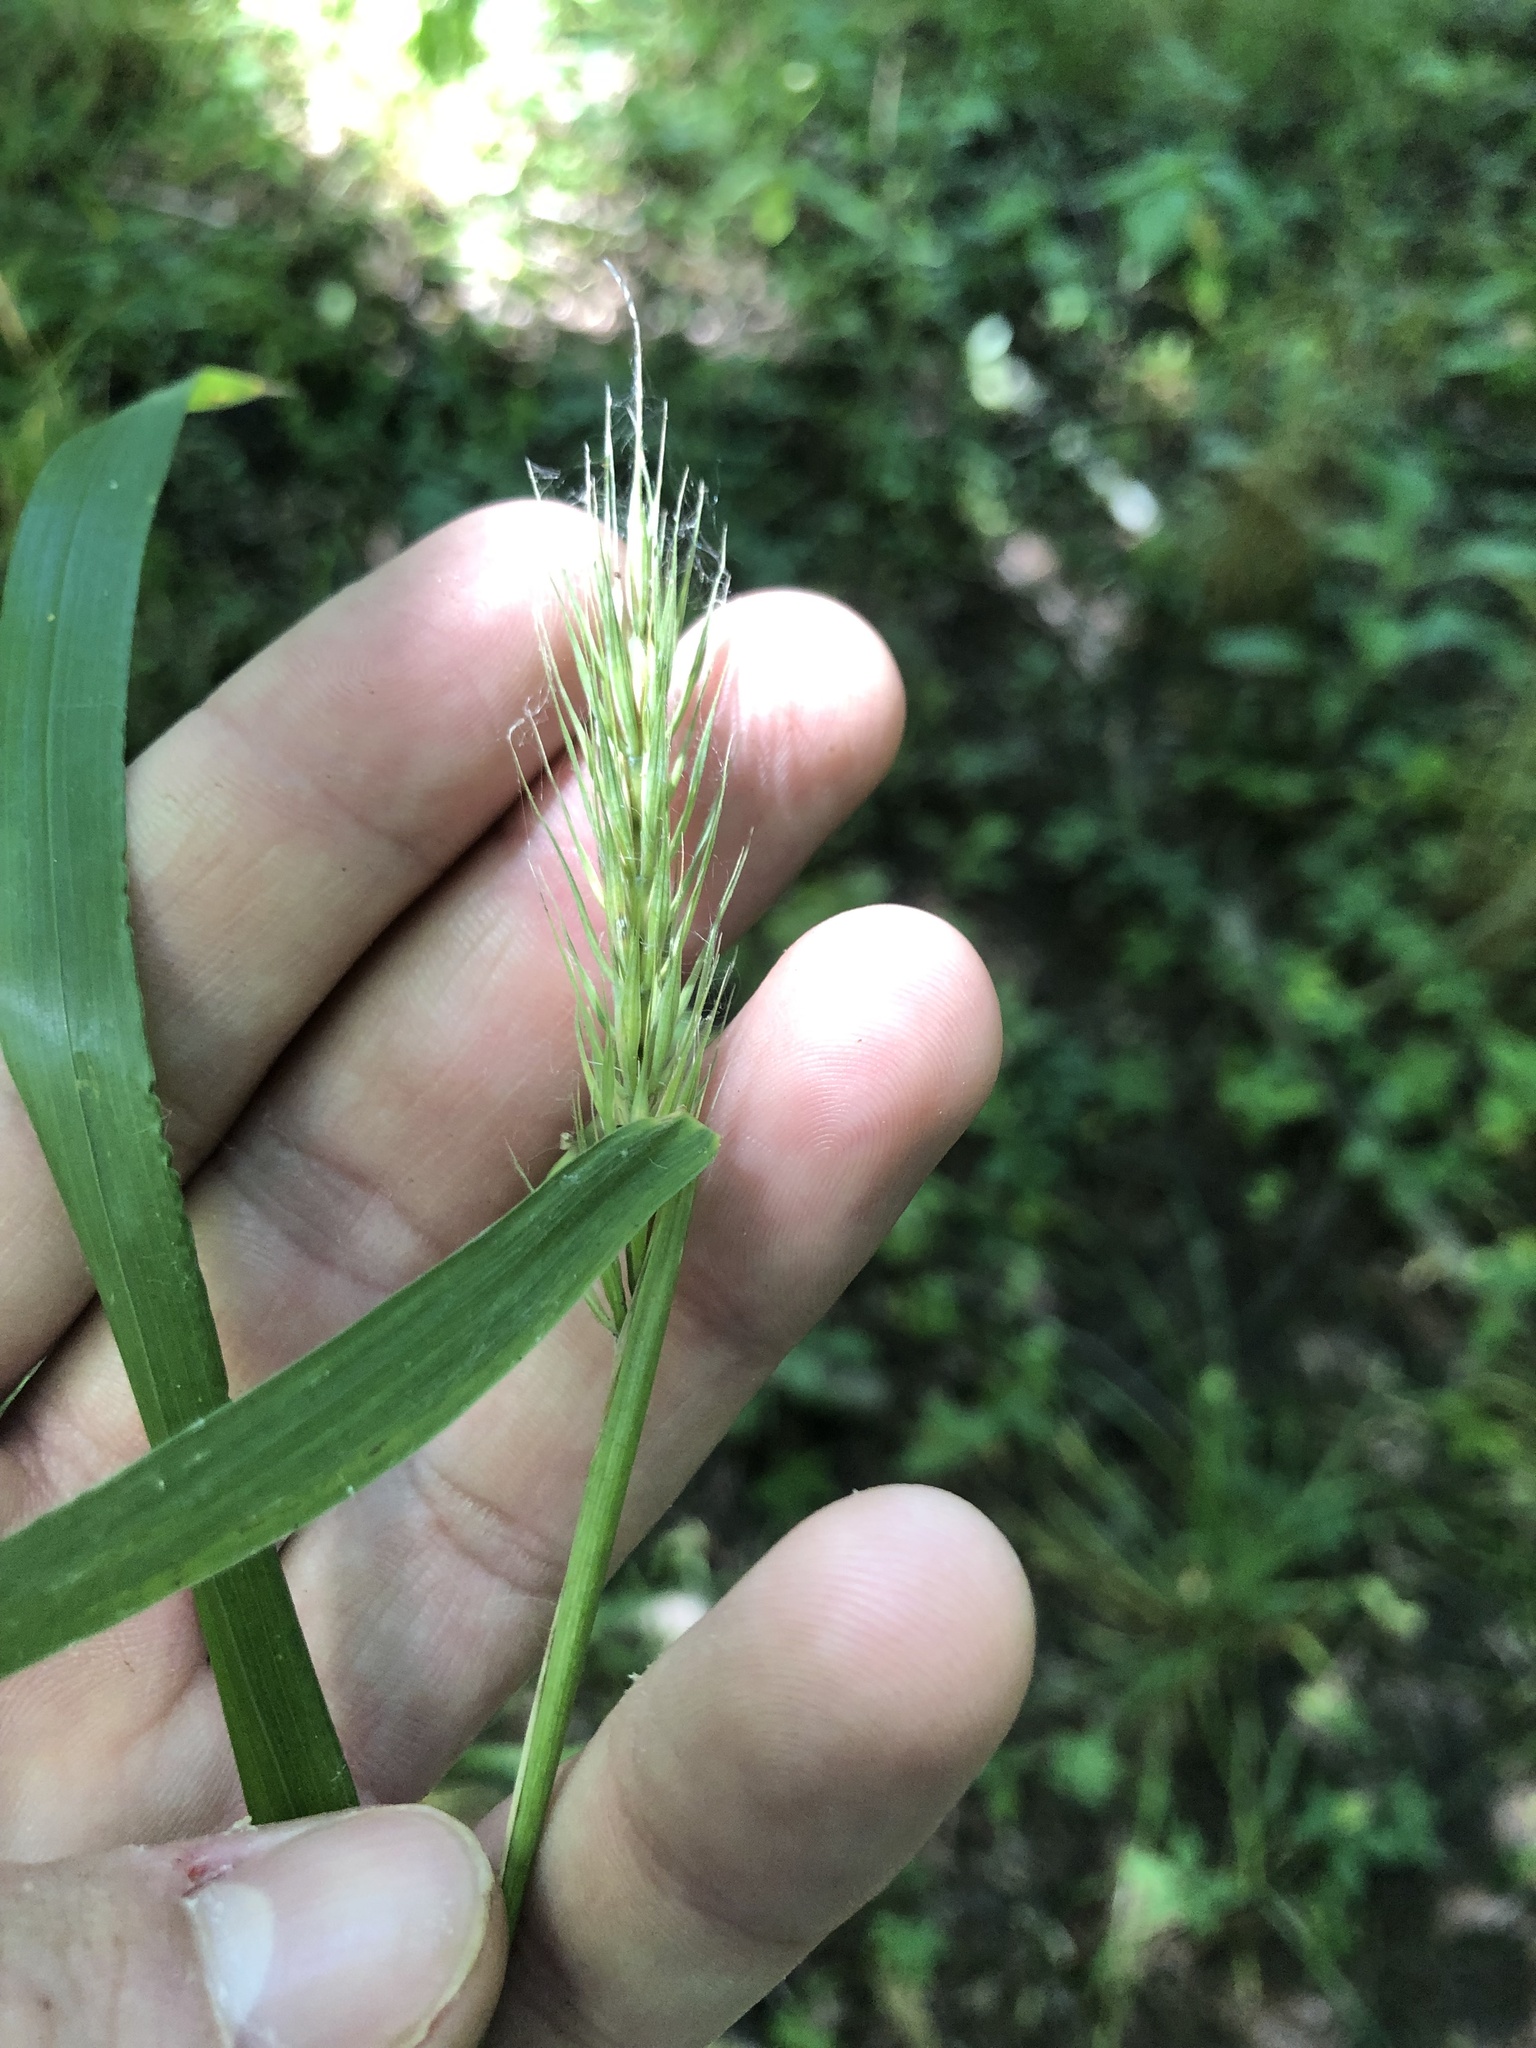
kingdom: Plantae
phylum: Tracheophyta
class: Liliopsida
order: Poales
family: Poaceae
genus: Elymus
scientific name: Elymus virginicus
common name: Common eastern wildrye
